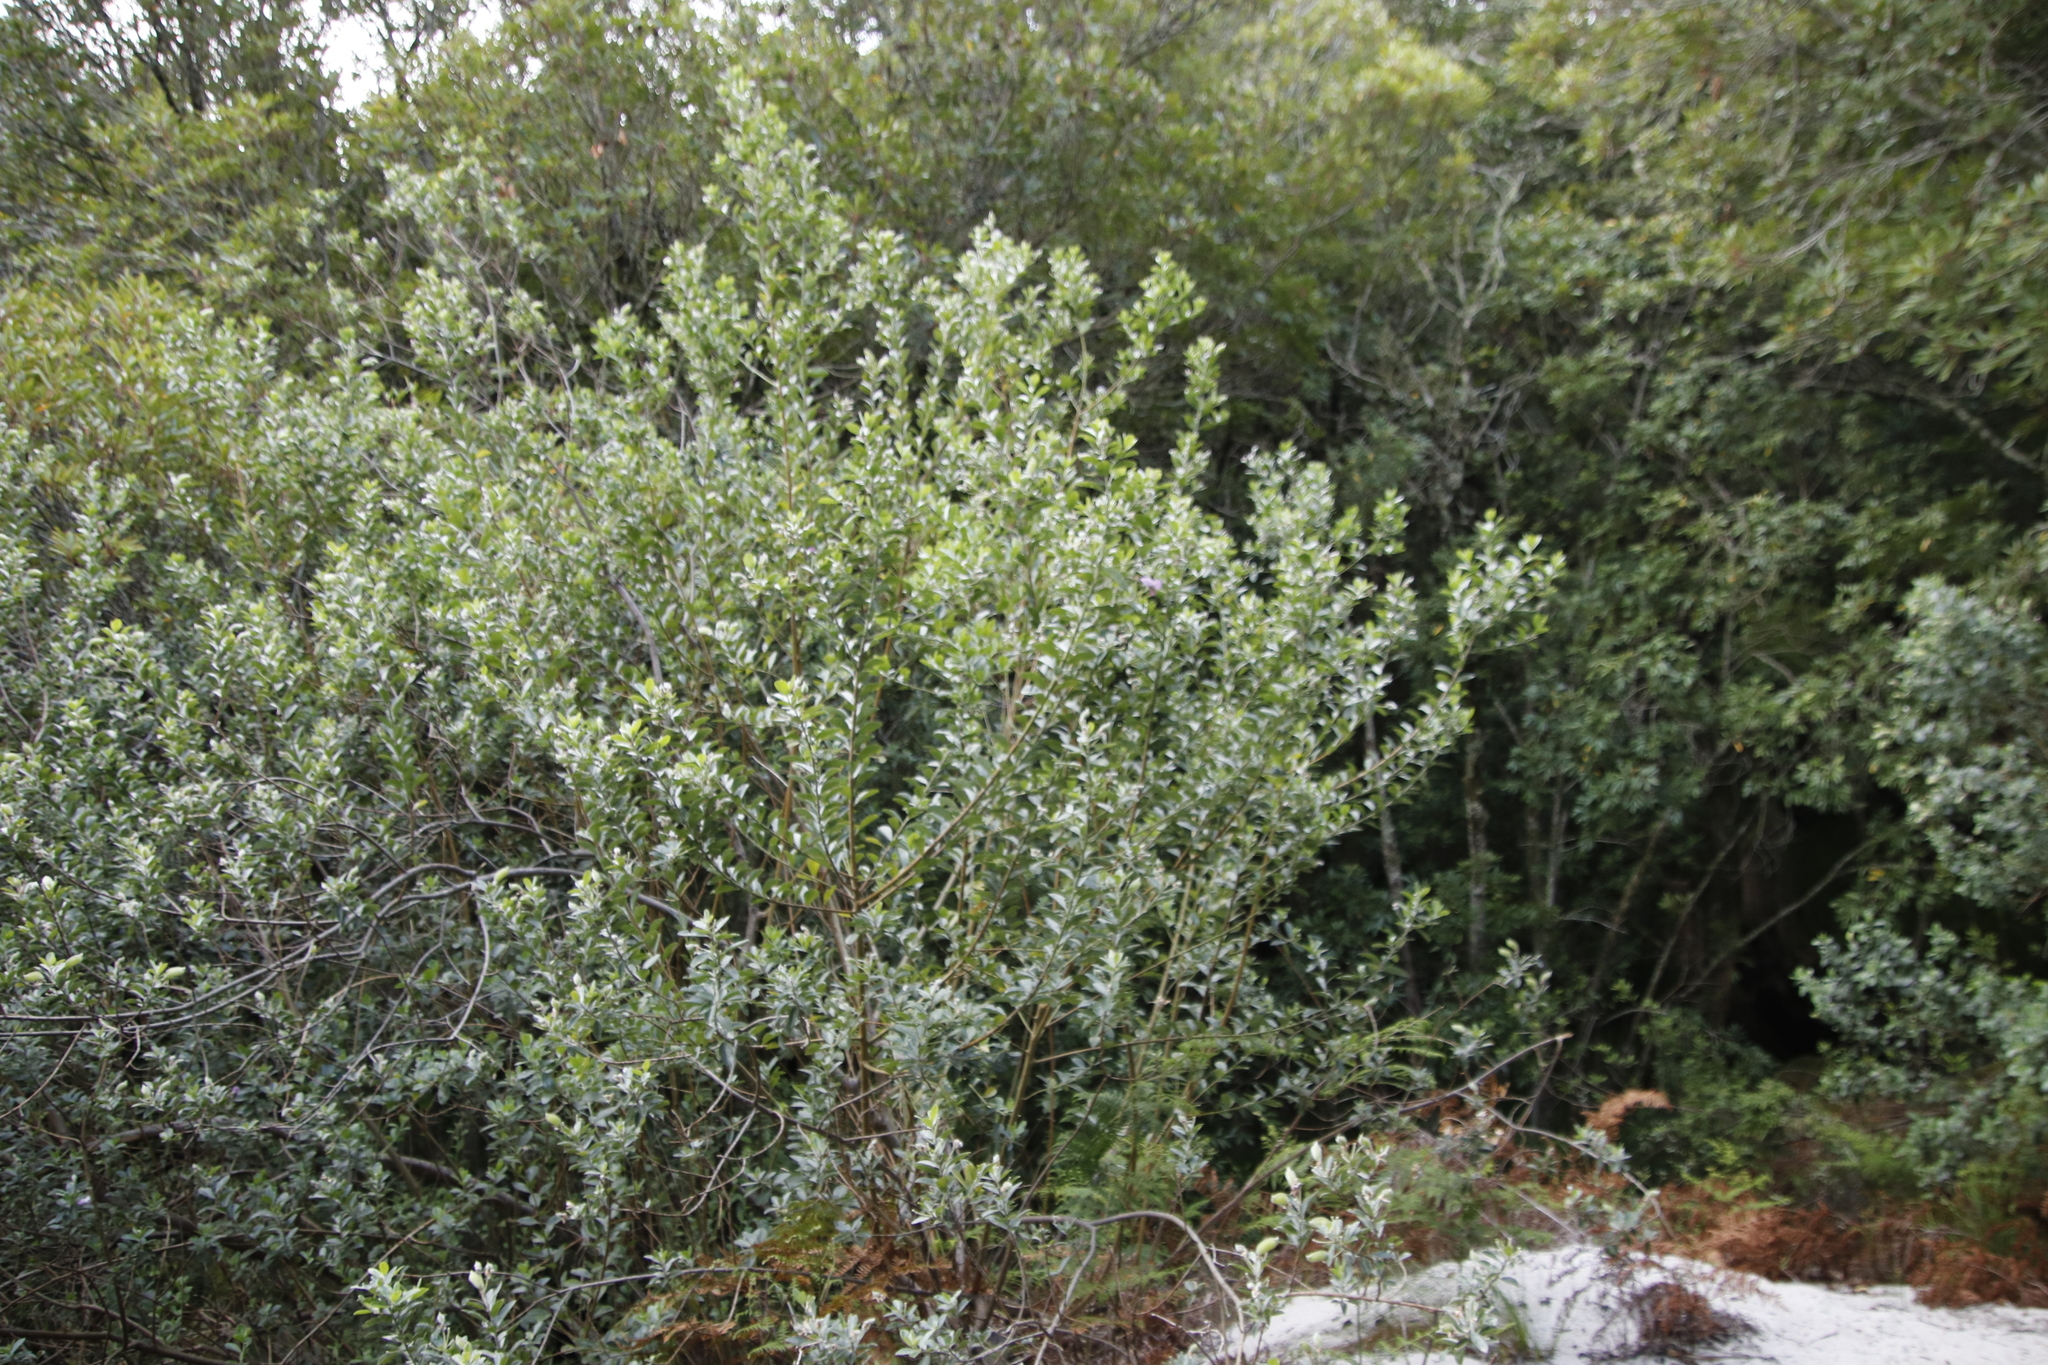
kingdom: Plantae
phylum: Tracheophyta
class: Magnoliopsida
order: Fabales
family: Fabaceae
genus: Podalyria
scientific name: Podalyria calyptrata
